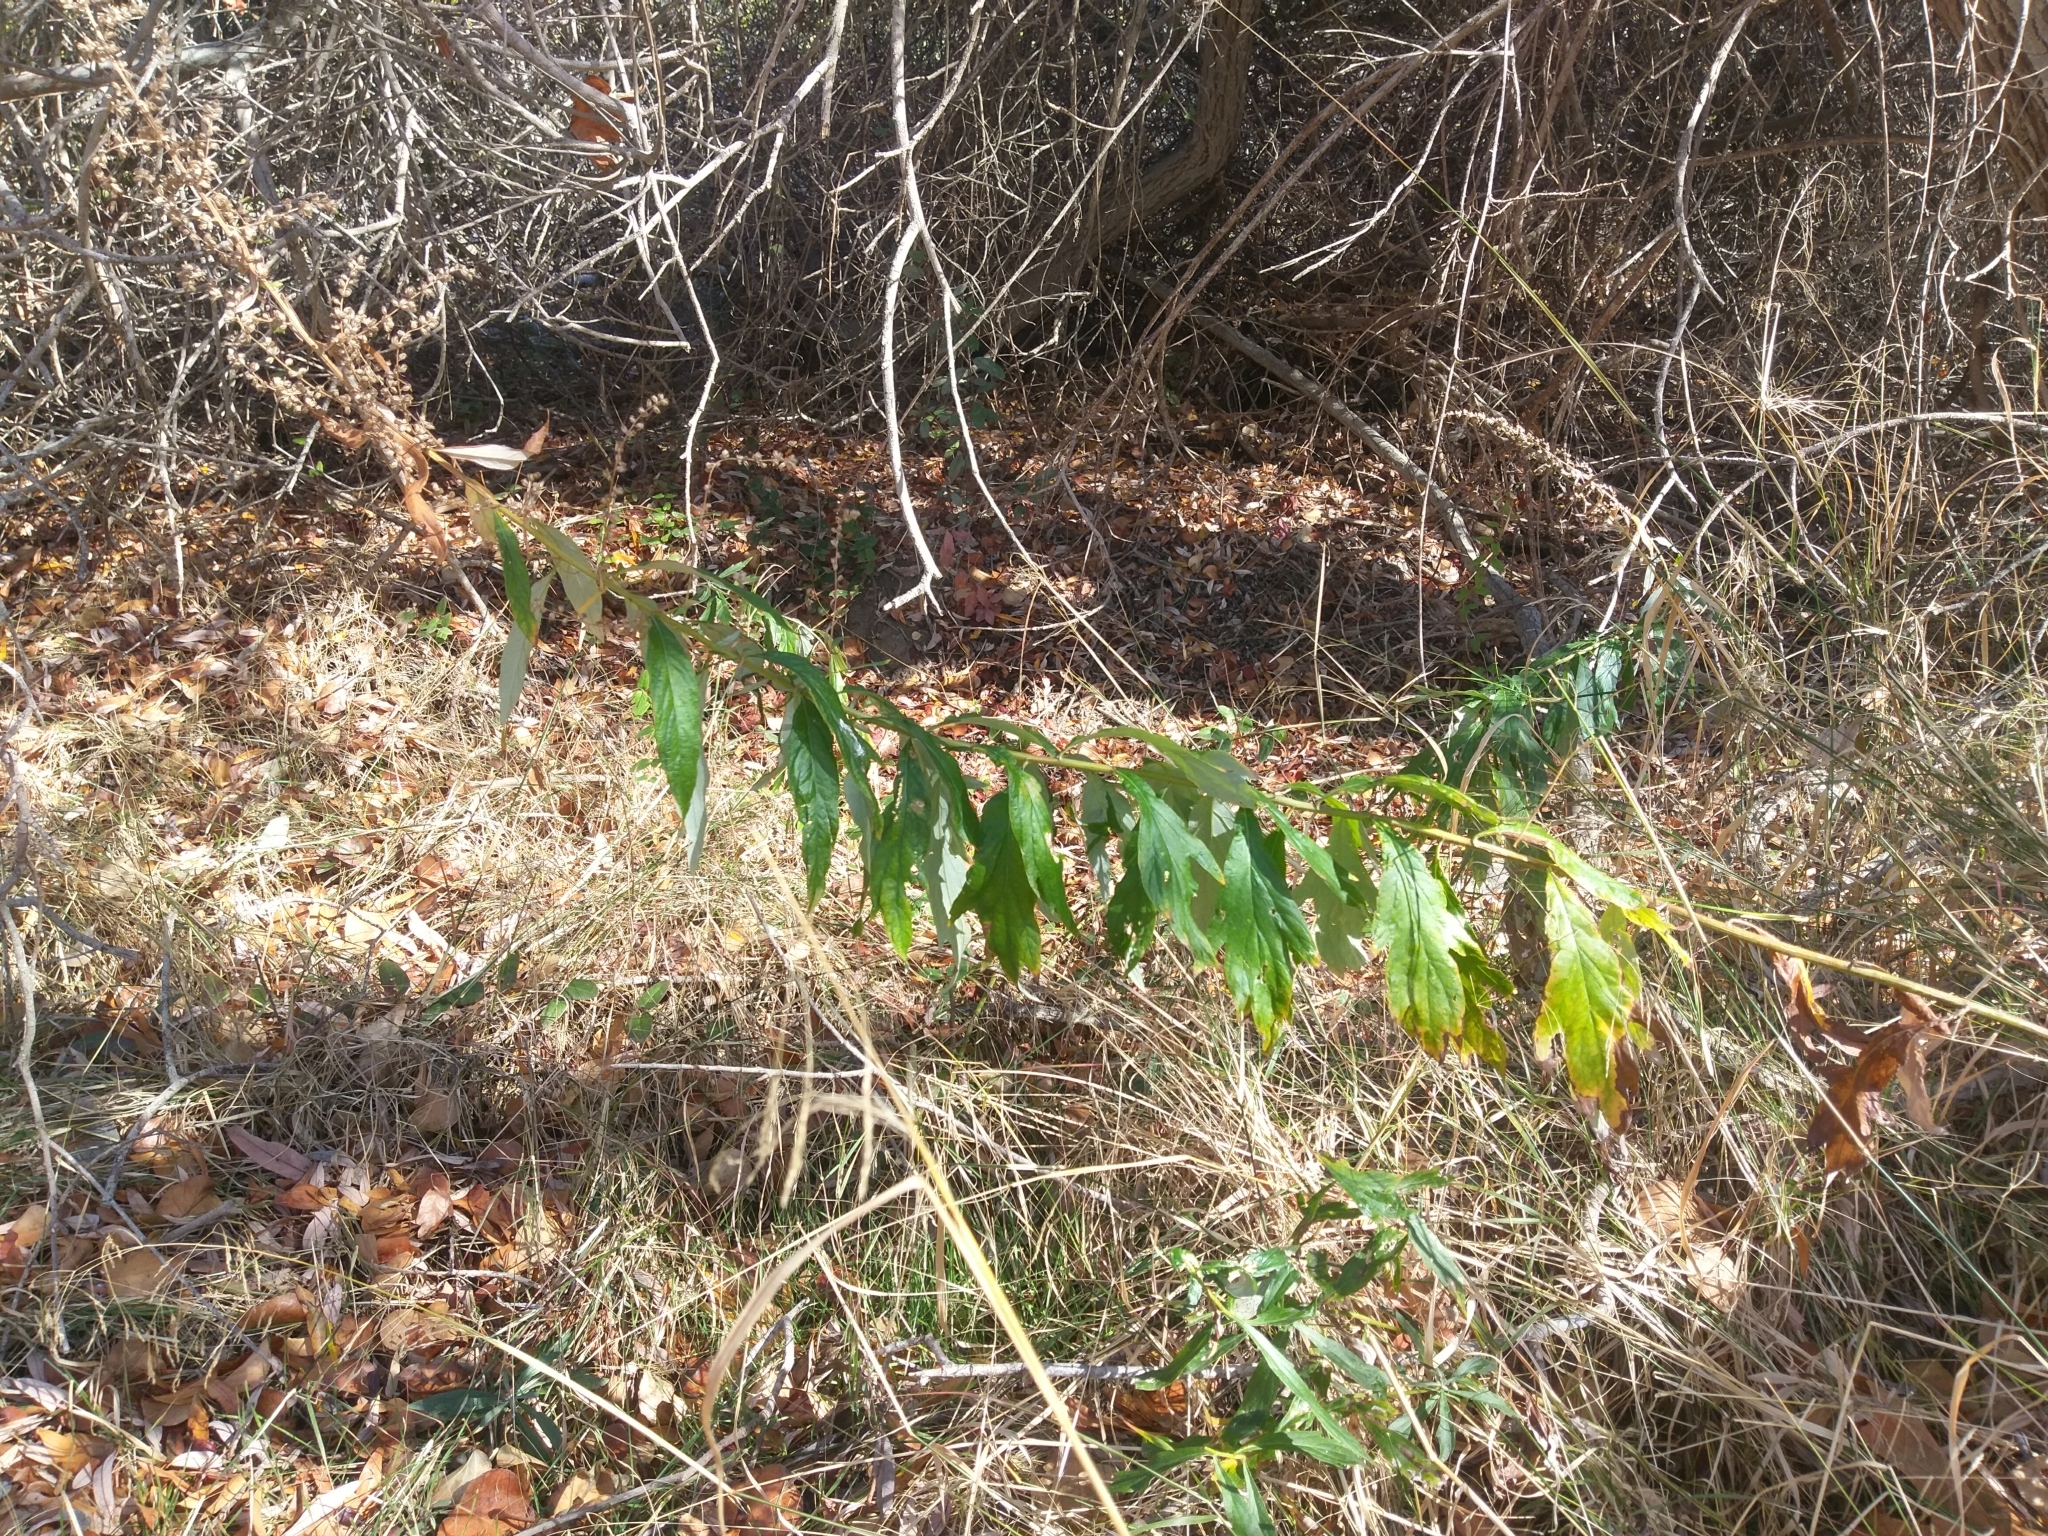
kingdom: Plantae
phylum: Tracheophyta
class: Magnoliopsida
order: Asterales
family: Asteraceae
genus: Artemisia
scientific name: Artemisia douglasiana
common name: Northwest mugwort
